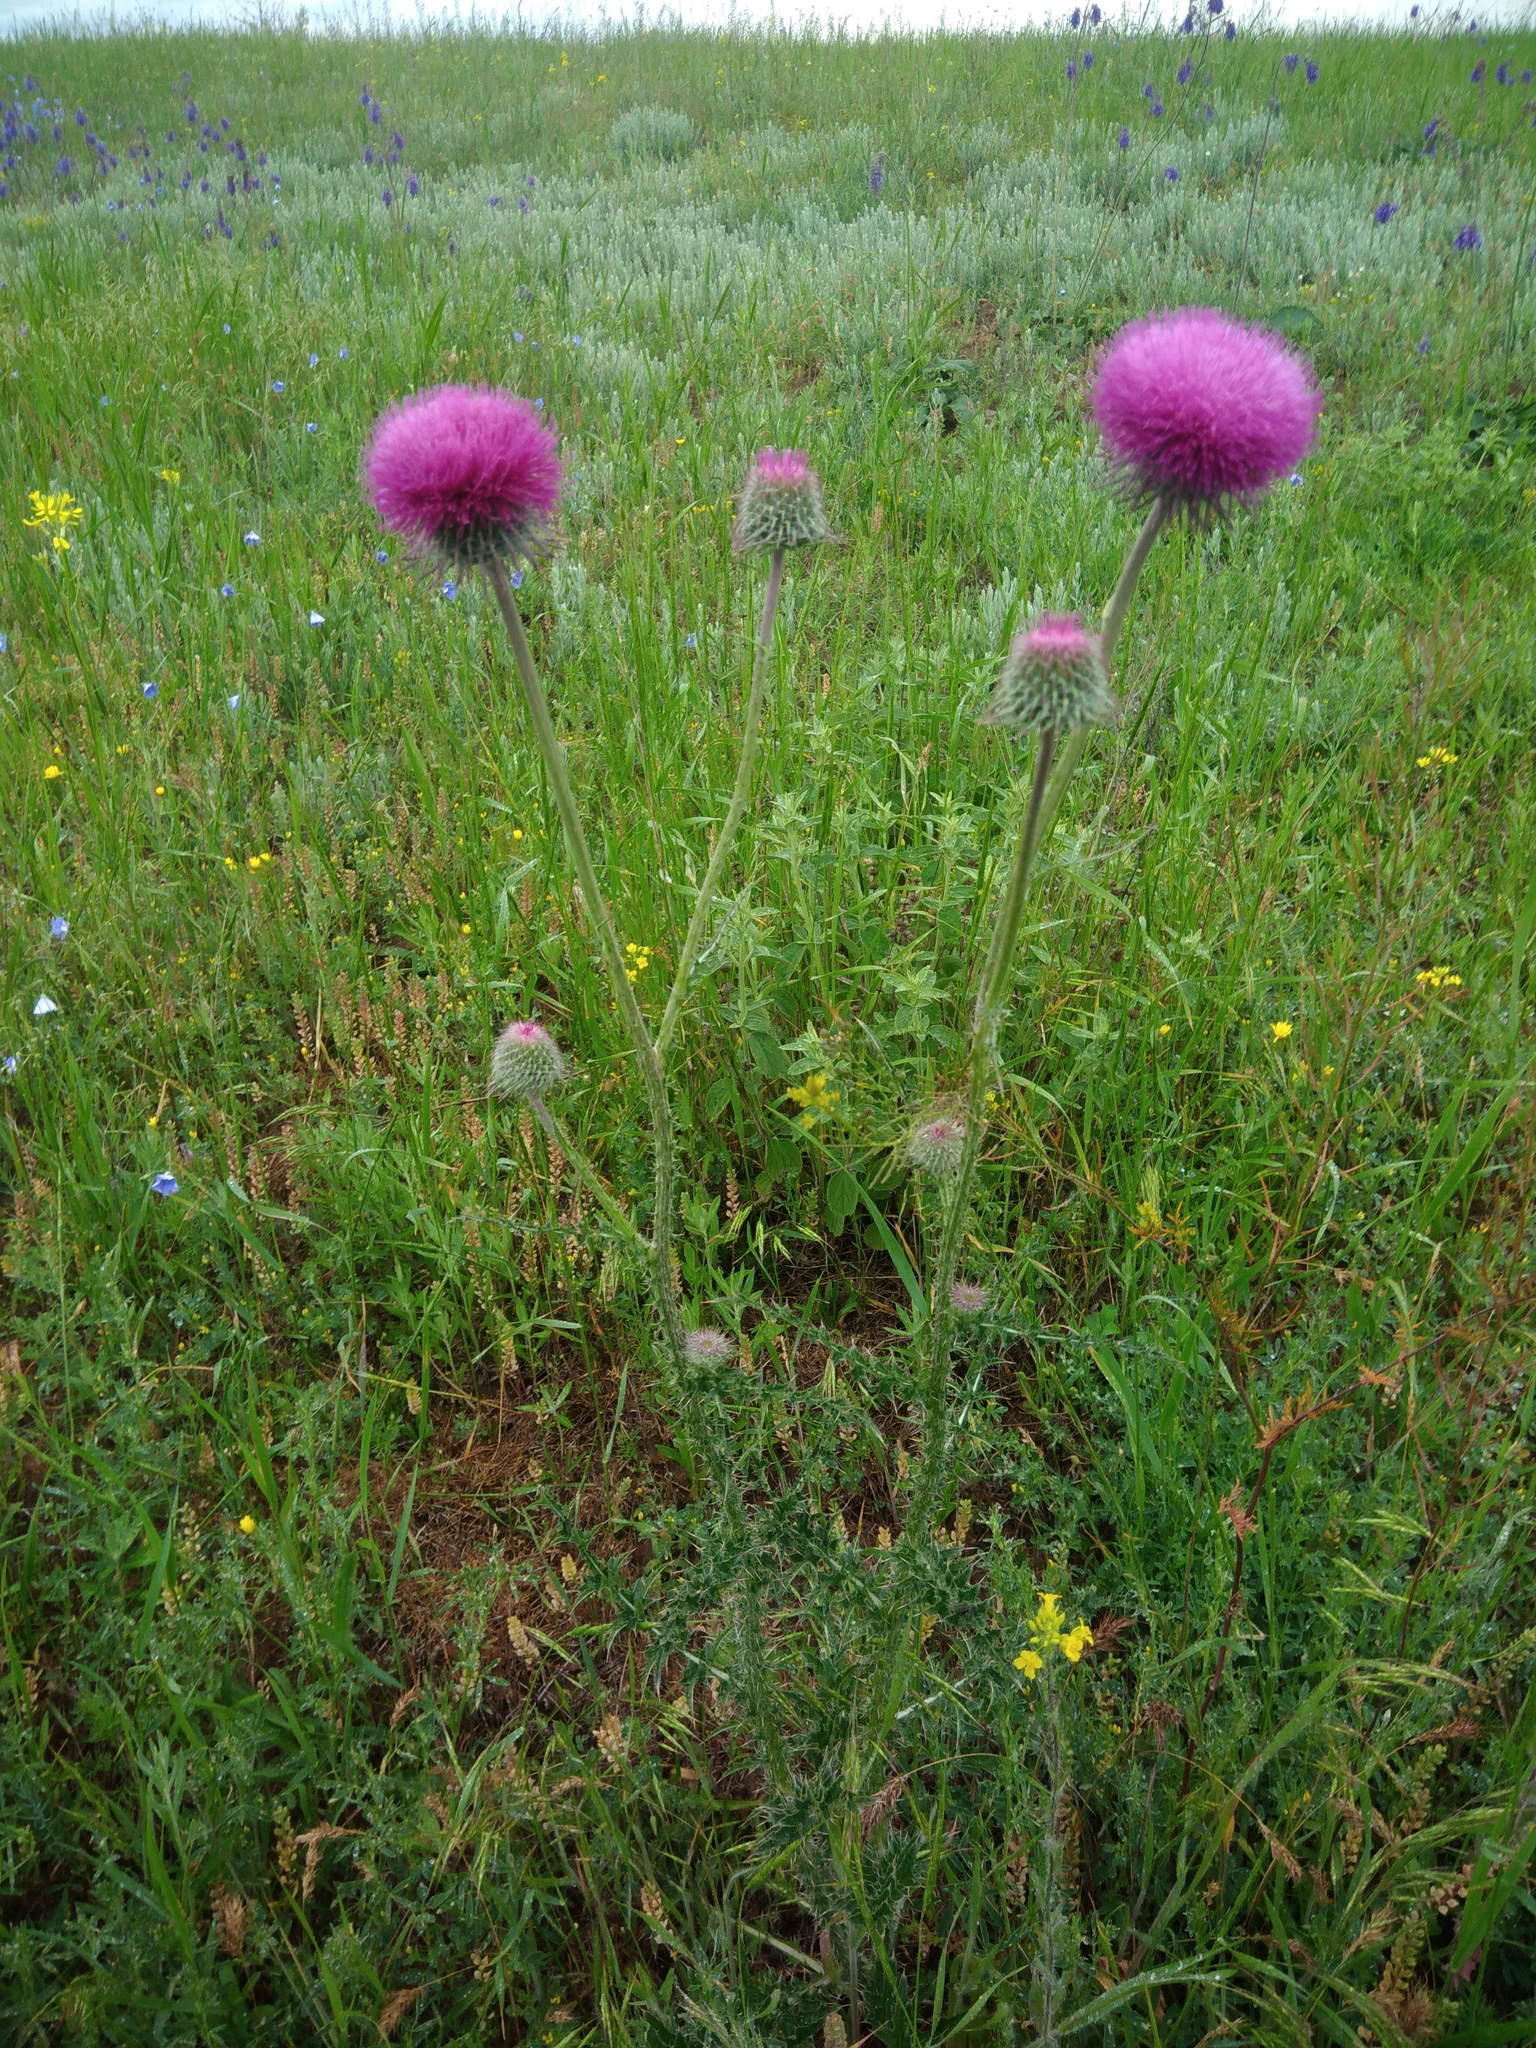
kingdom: Plantae
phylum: Tracheophyta
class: Magnoliopsida
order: Asterales
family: Asteraceae
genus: Carduus
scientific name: Carduus uncinatus
